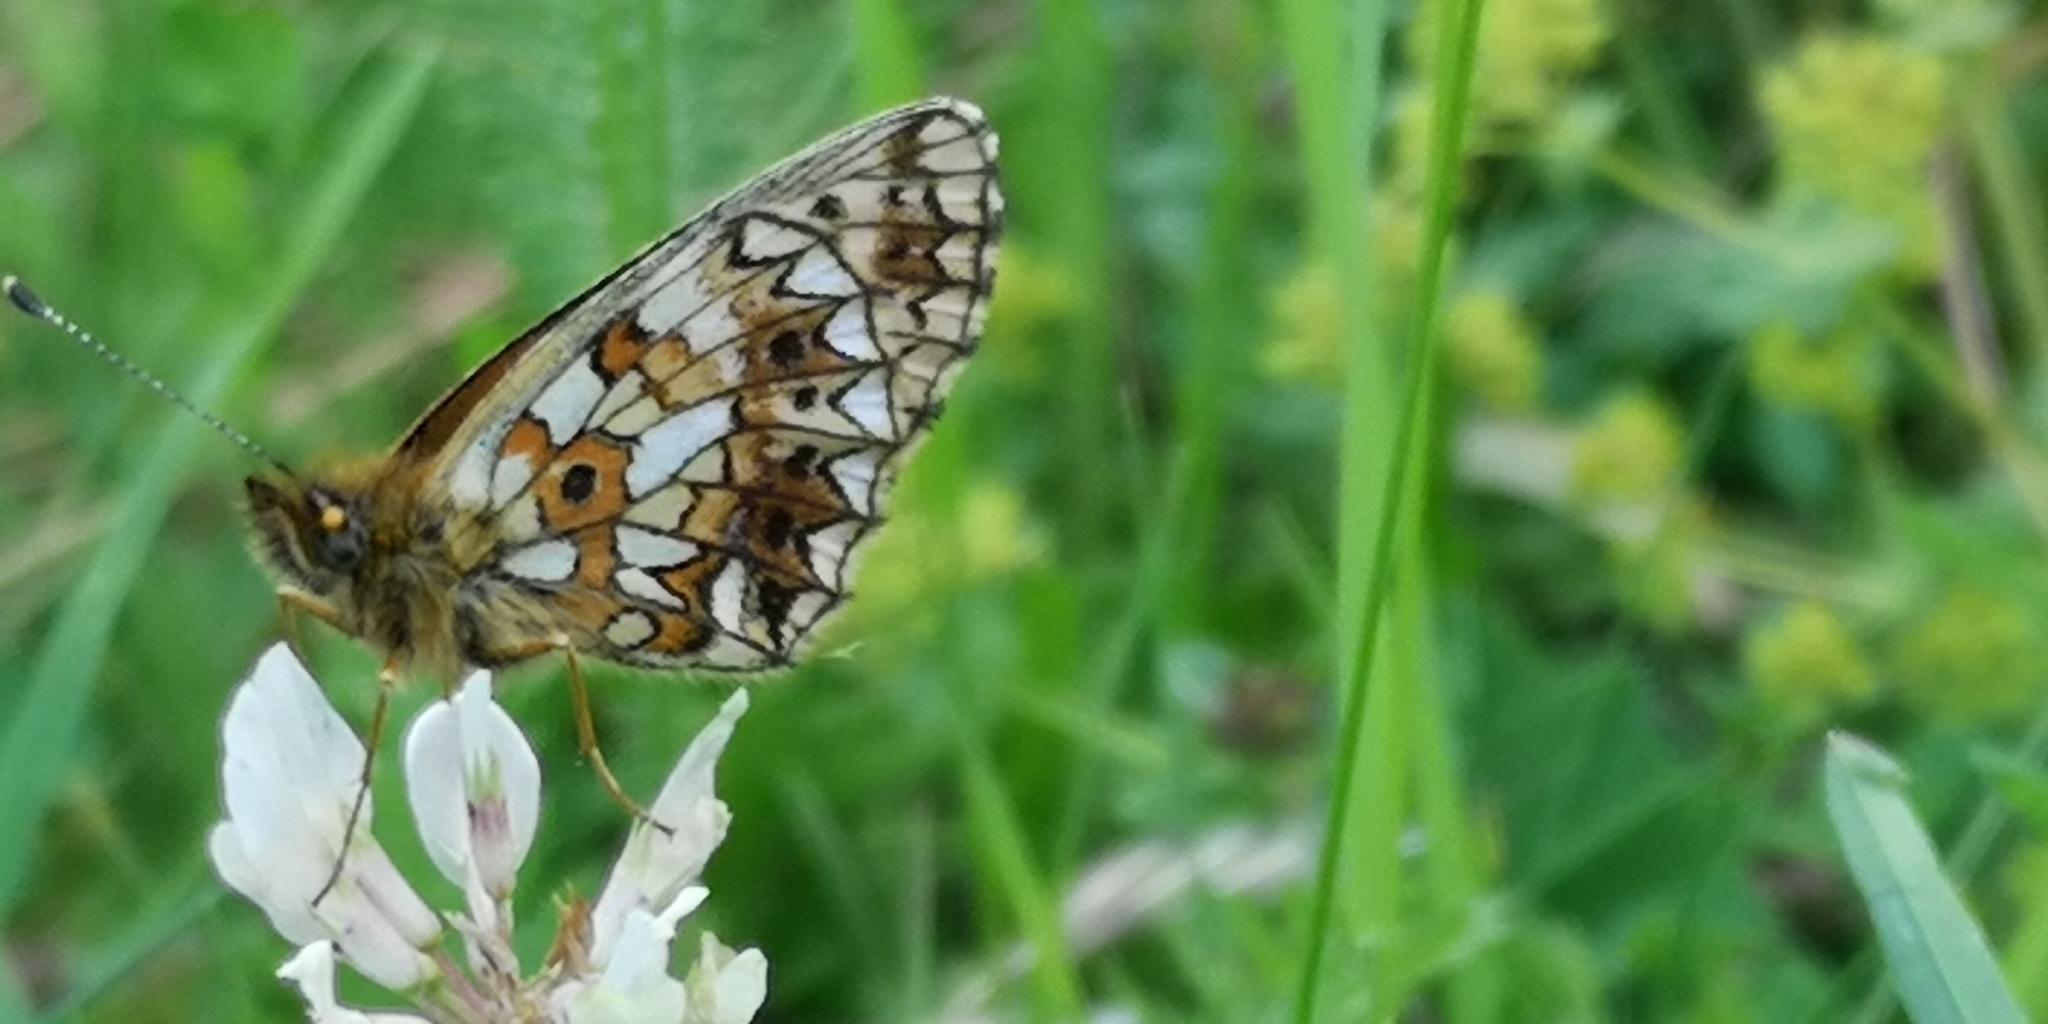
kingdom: Animalia
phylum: Arthropoda
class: Insecta
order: Lepidoptera
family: Nymphalidae
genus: Boloria
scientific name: Boloria selene
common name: Small pearl-bordered fritillary
